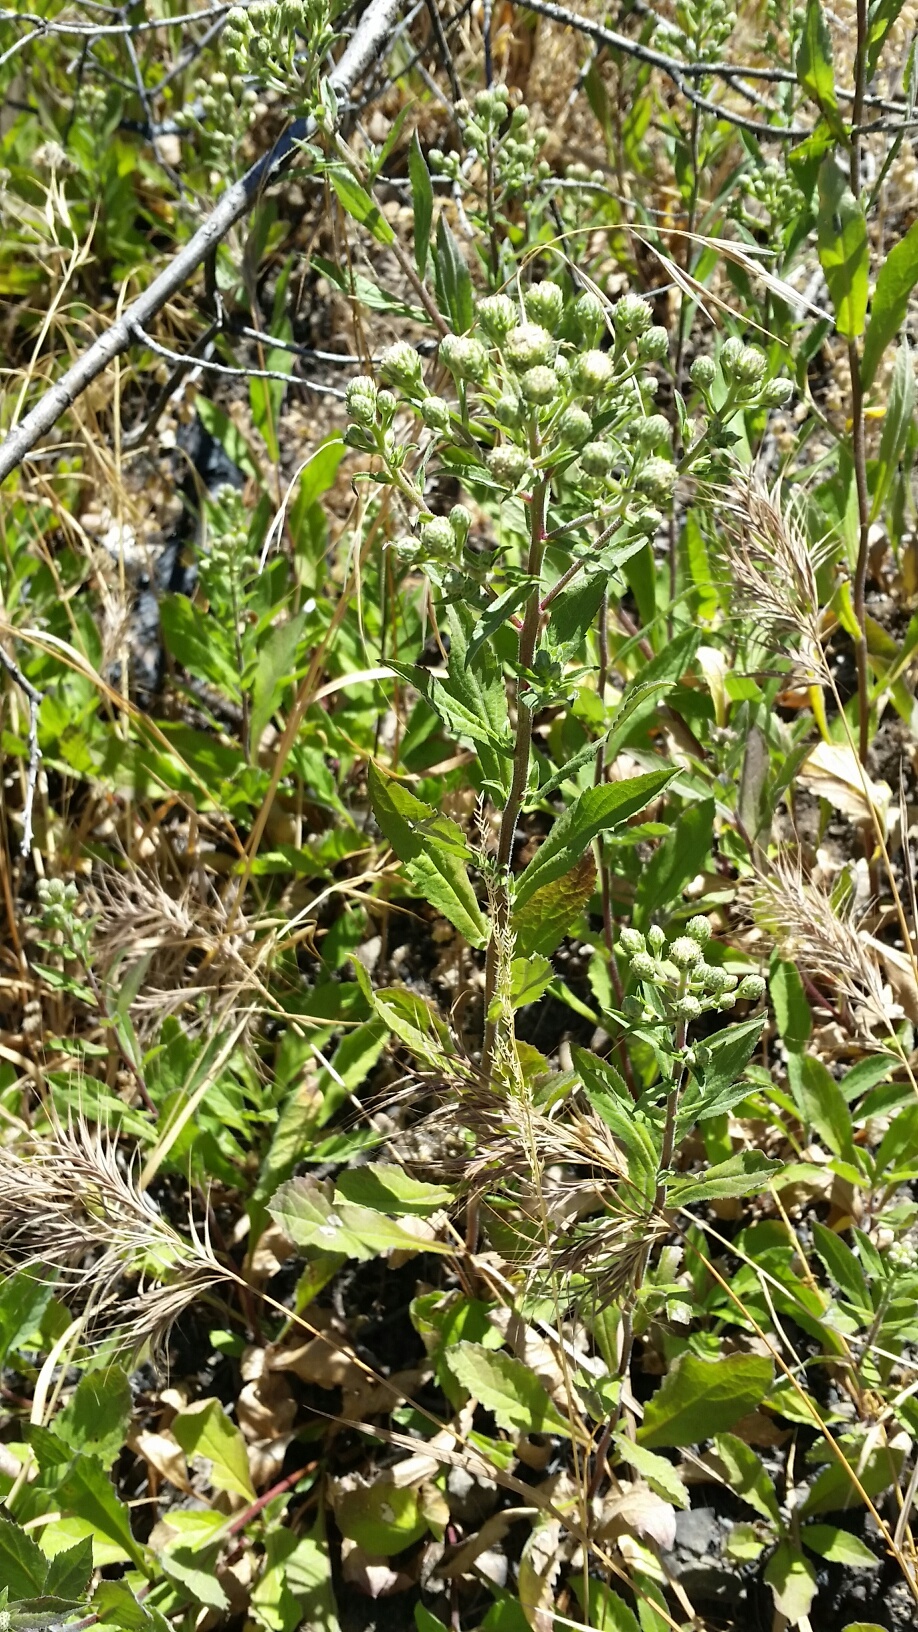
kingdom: Plantae
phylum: Tracheophyta
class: Magnoliopsida
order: Asterales
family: Asteraceae
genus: Eurybia
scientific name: Eurybia radulina
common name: Rough-leaved aster
